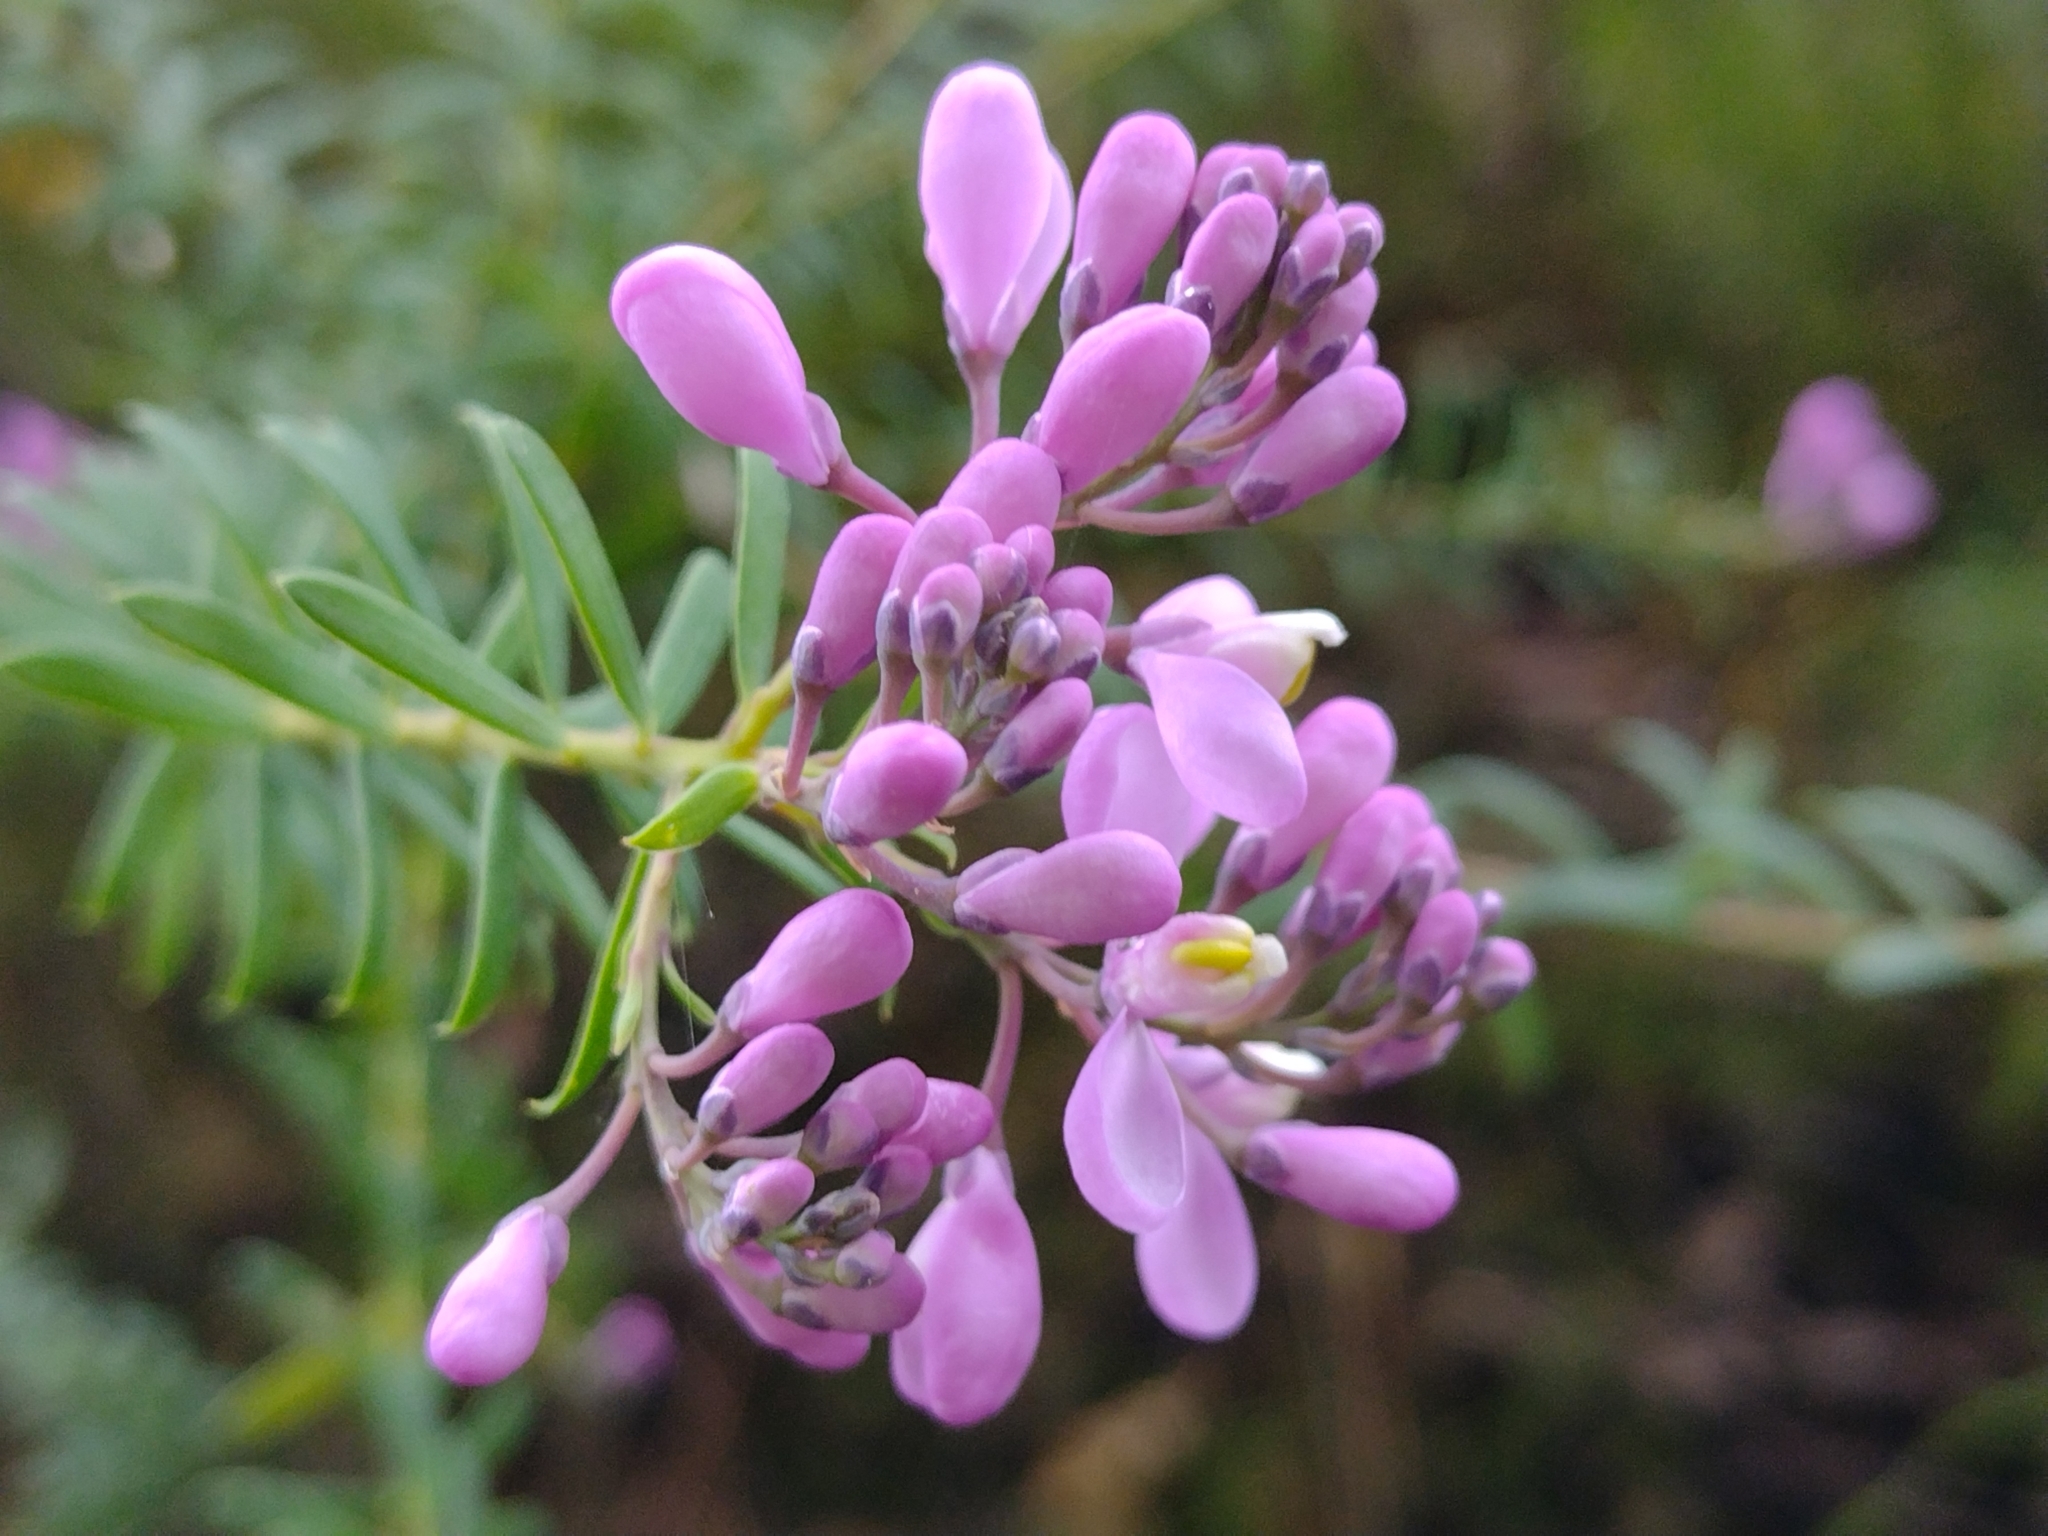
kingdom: Plantae
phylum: Tracheophyta
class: Magnoliopsida
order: Fabales
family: Polygalaceae
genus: Comesperma
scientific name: Comesperma ericinum
